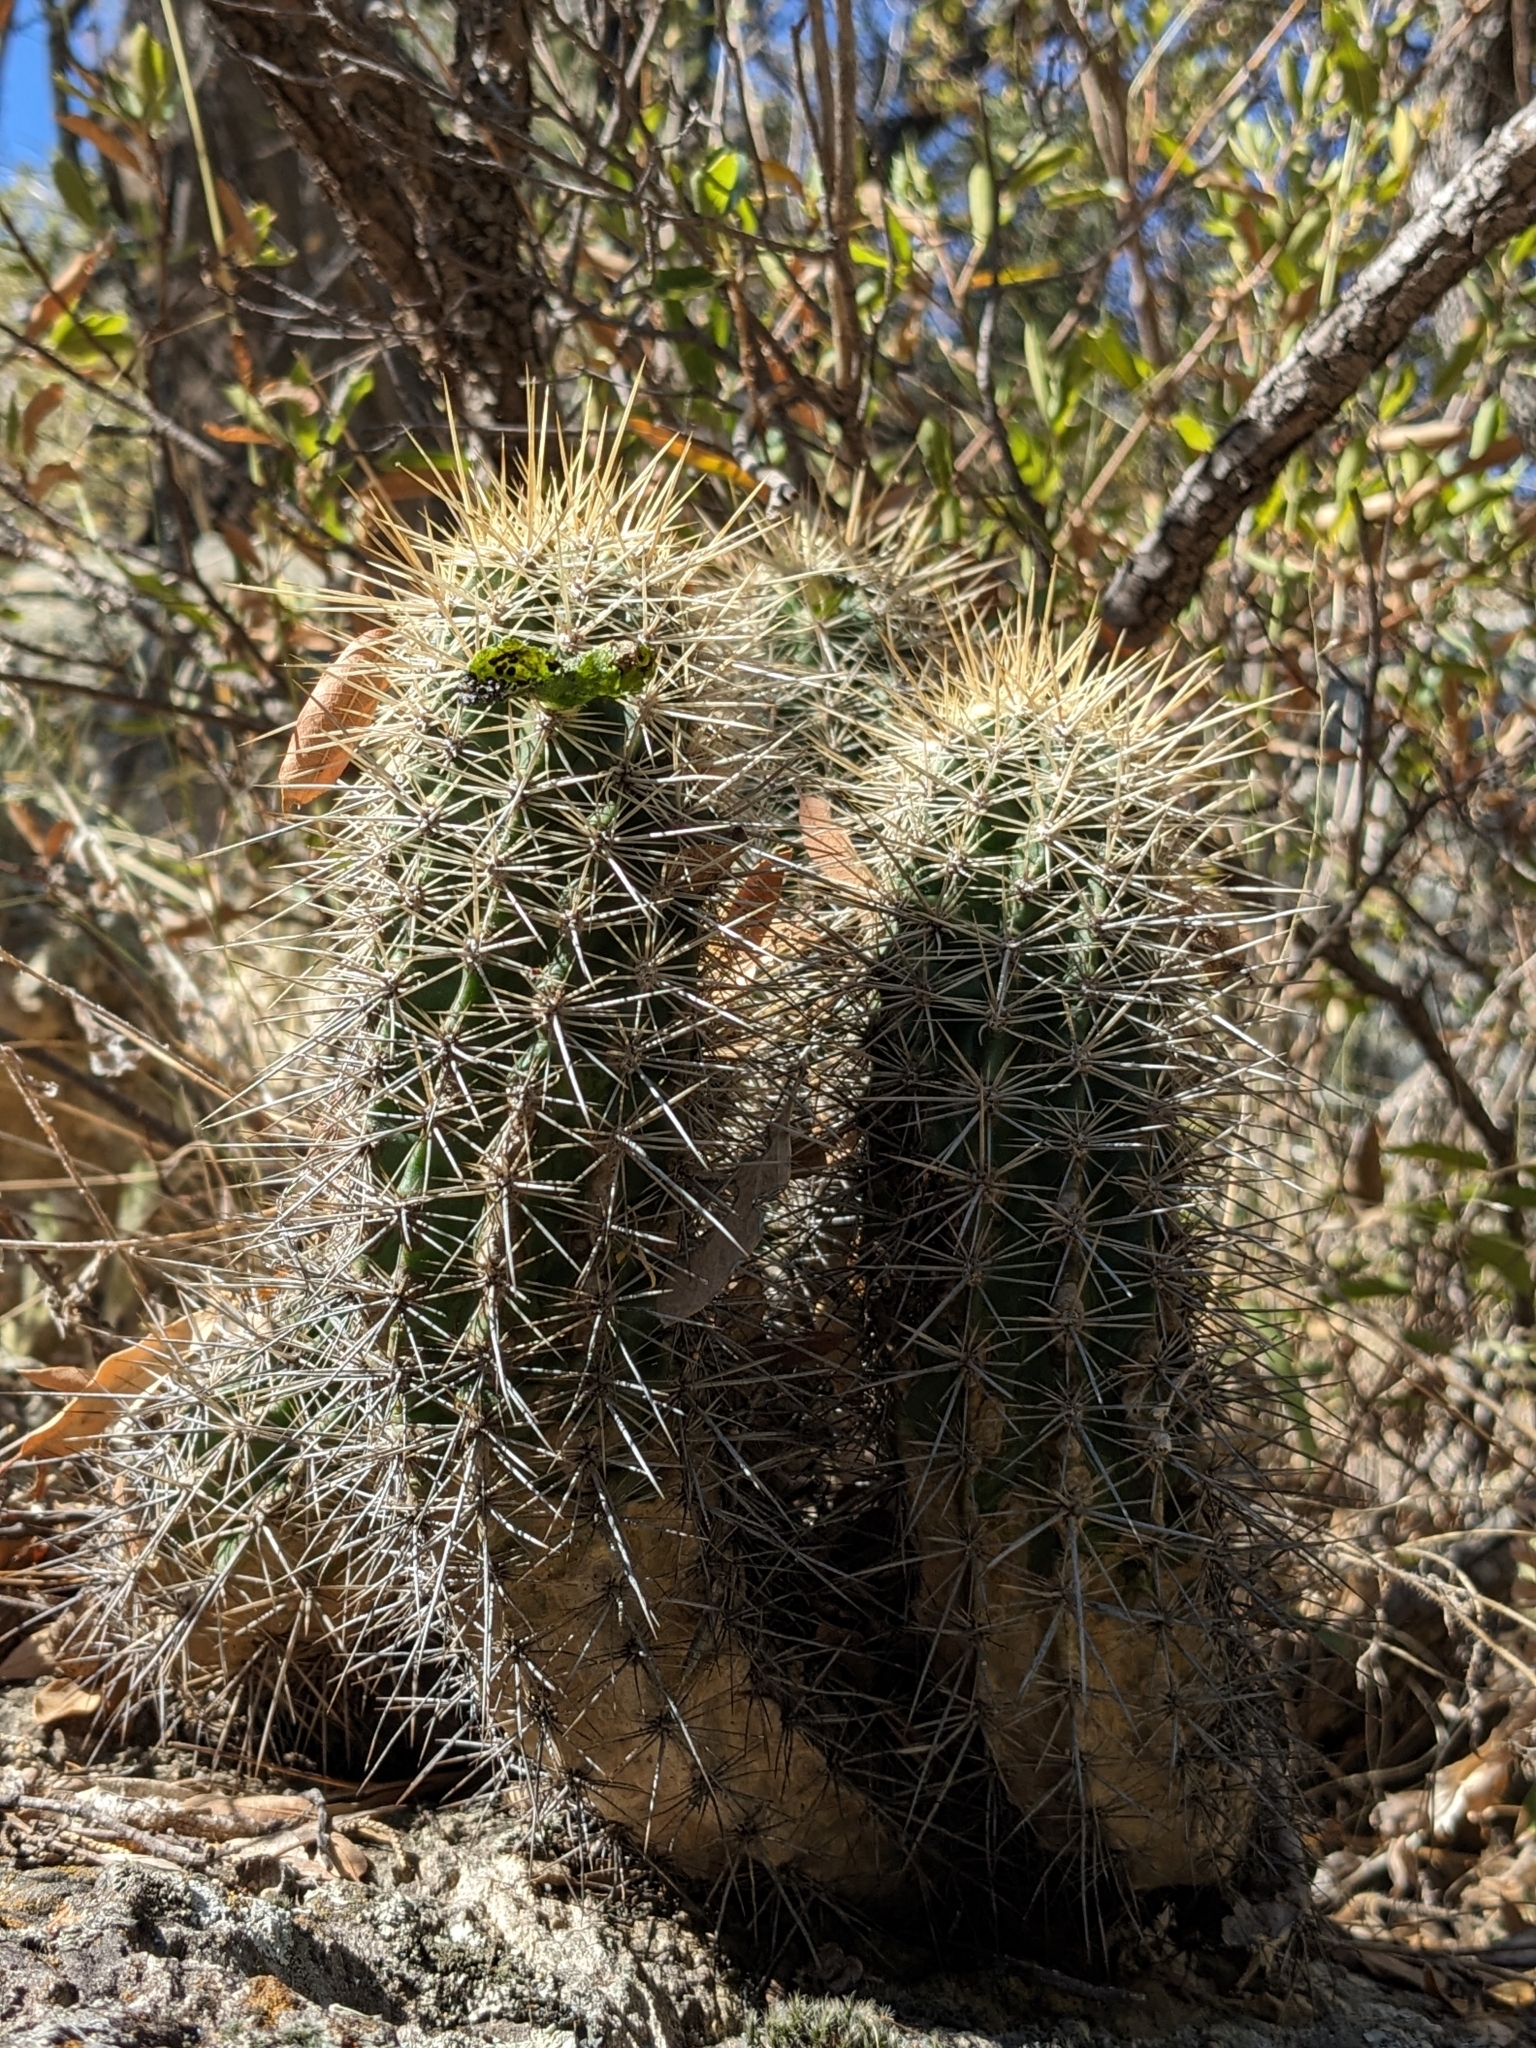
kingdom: Plantae
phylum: Tracheophyta
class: Magnoliopsida
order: Caryophyllales
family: Cactaceae
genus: Echinocereus
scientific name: Echinocereus coccineus
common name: Scarlet hedgehog cactus
